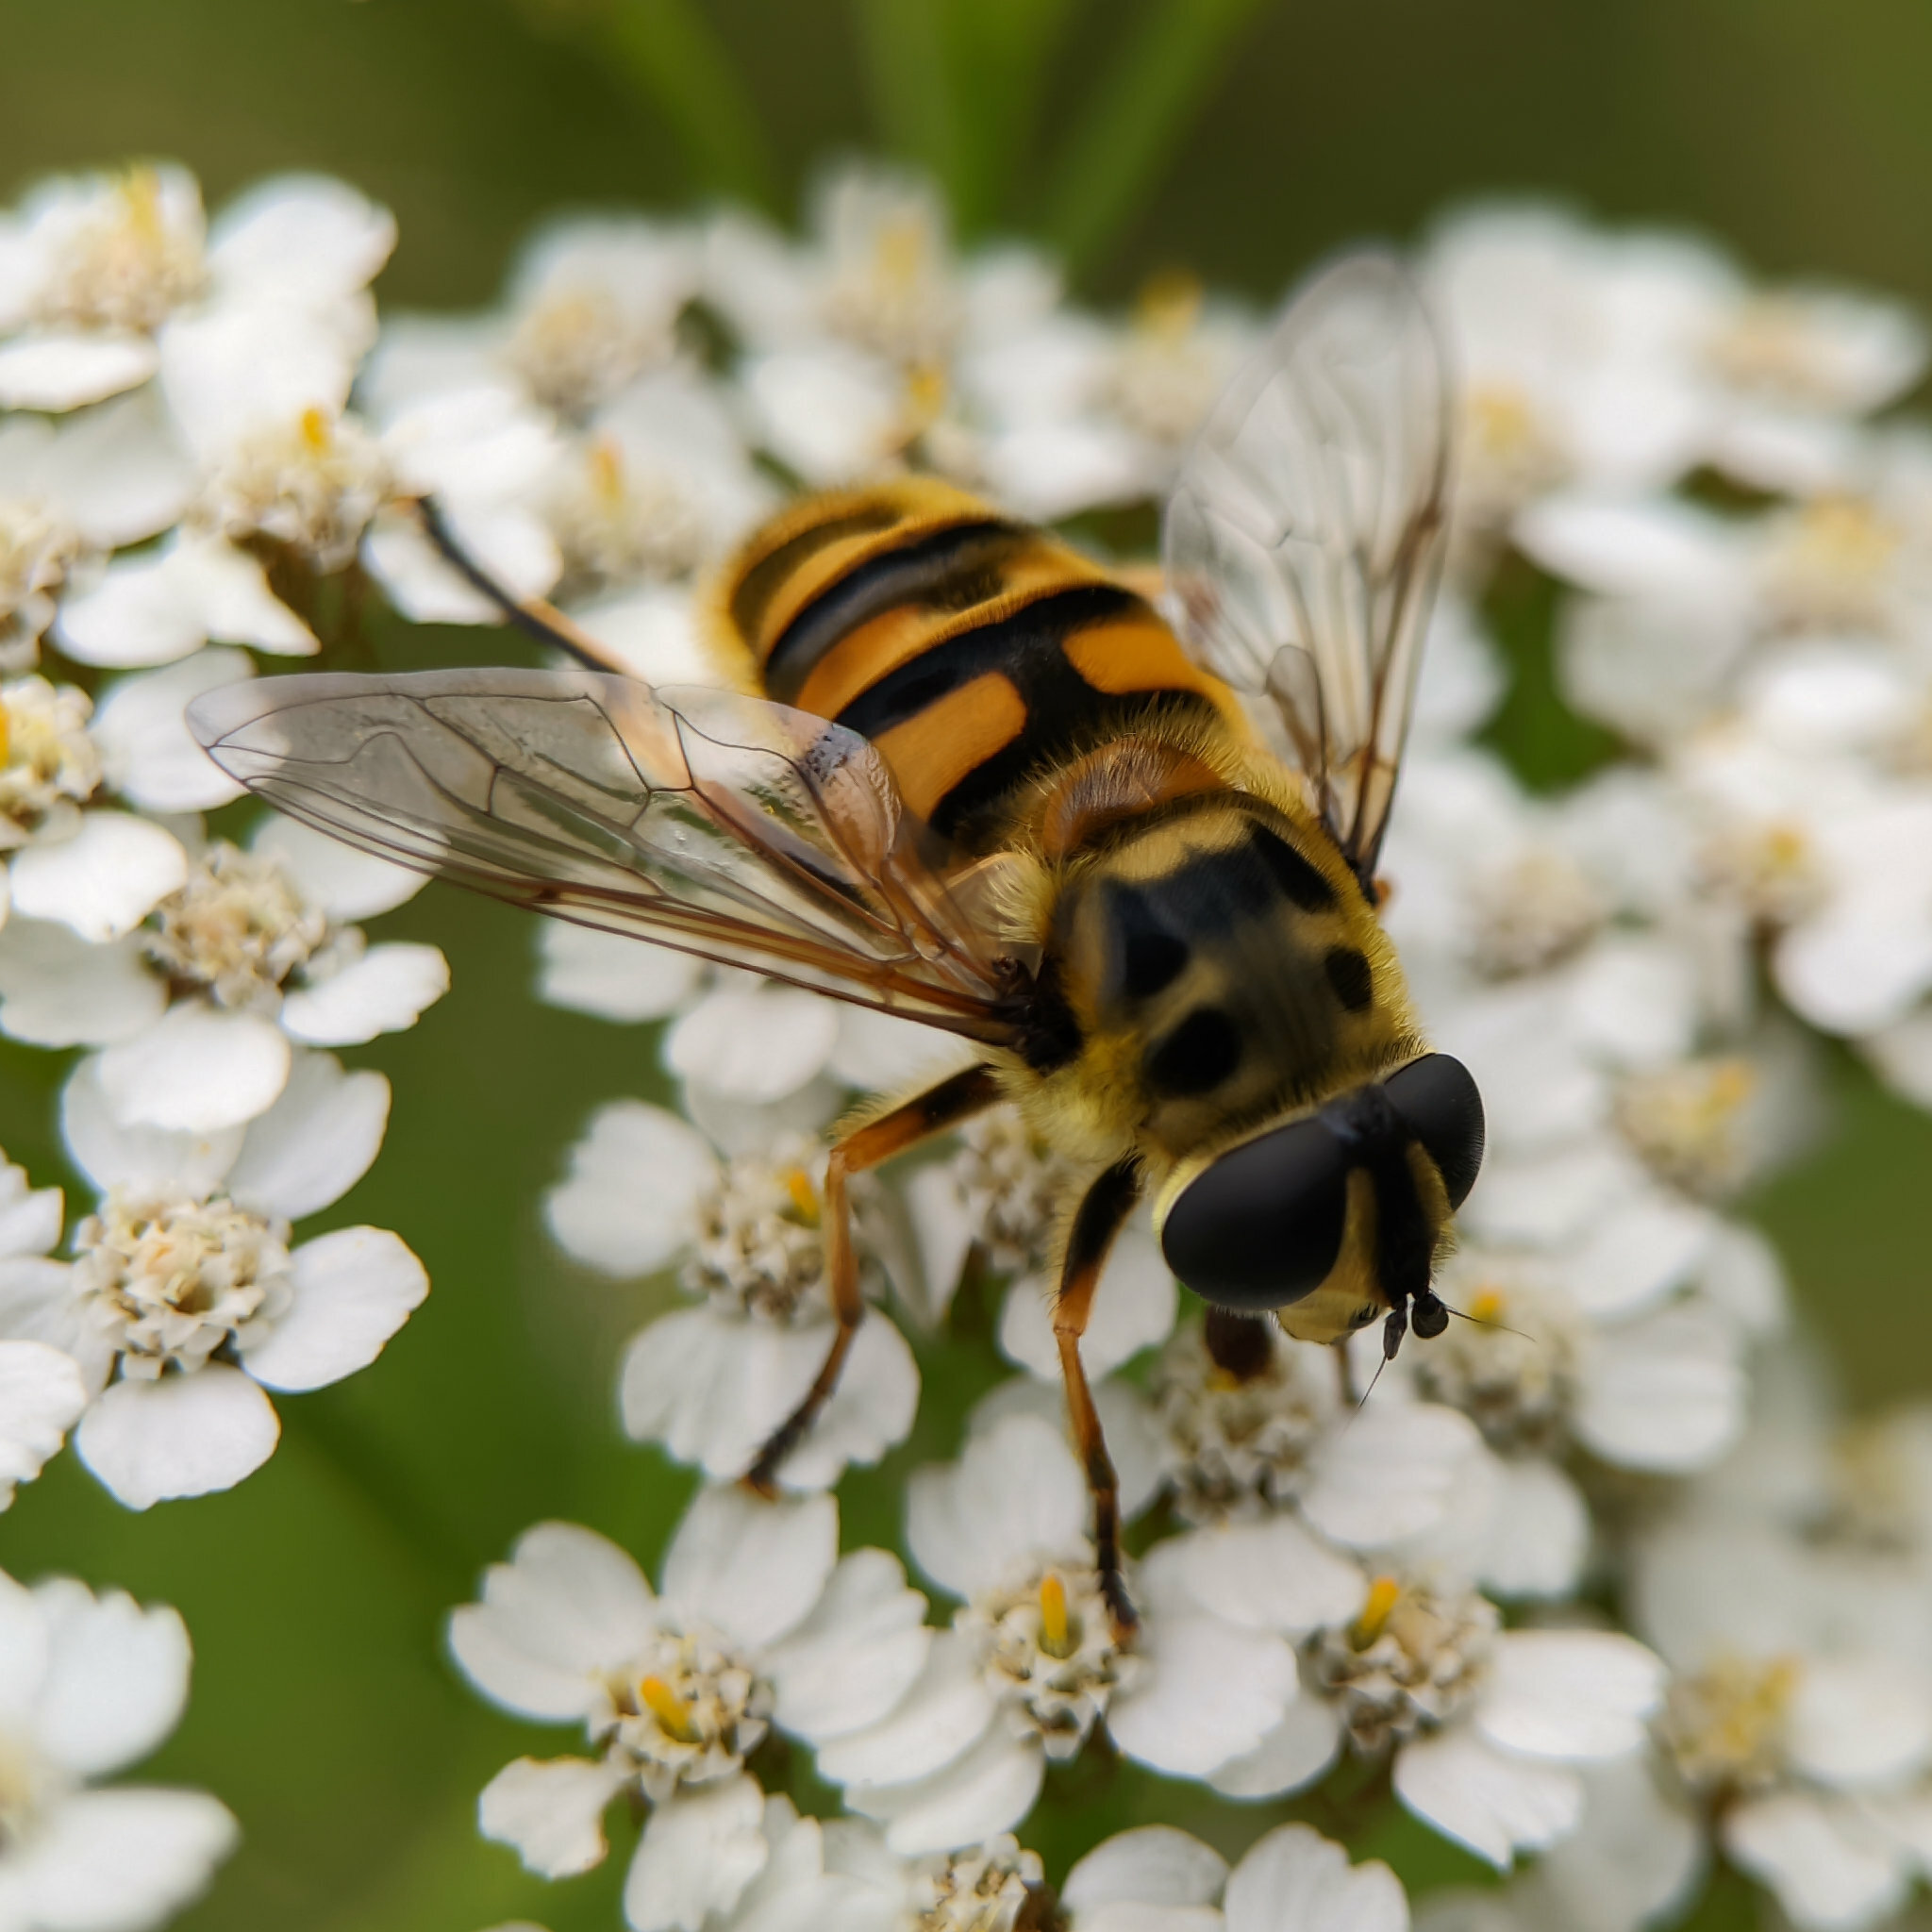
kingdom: Animalia
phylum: Arthropoda
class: Insecta
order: Diptera
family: Syrphidae
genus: Myathropa
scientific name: Myathropa florea
